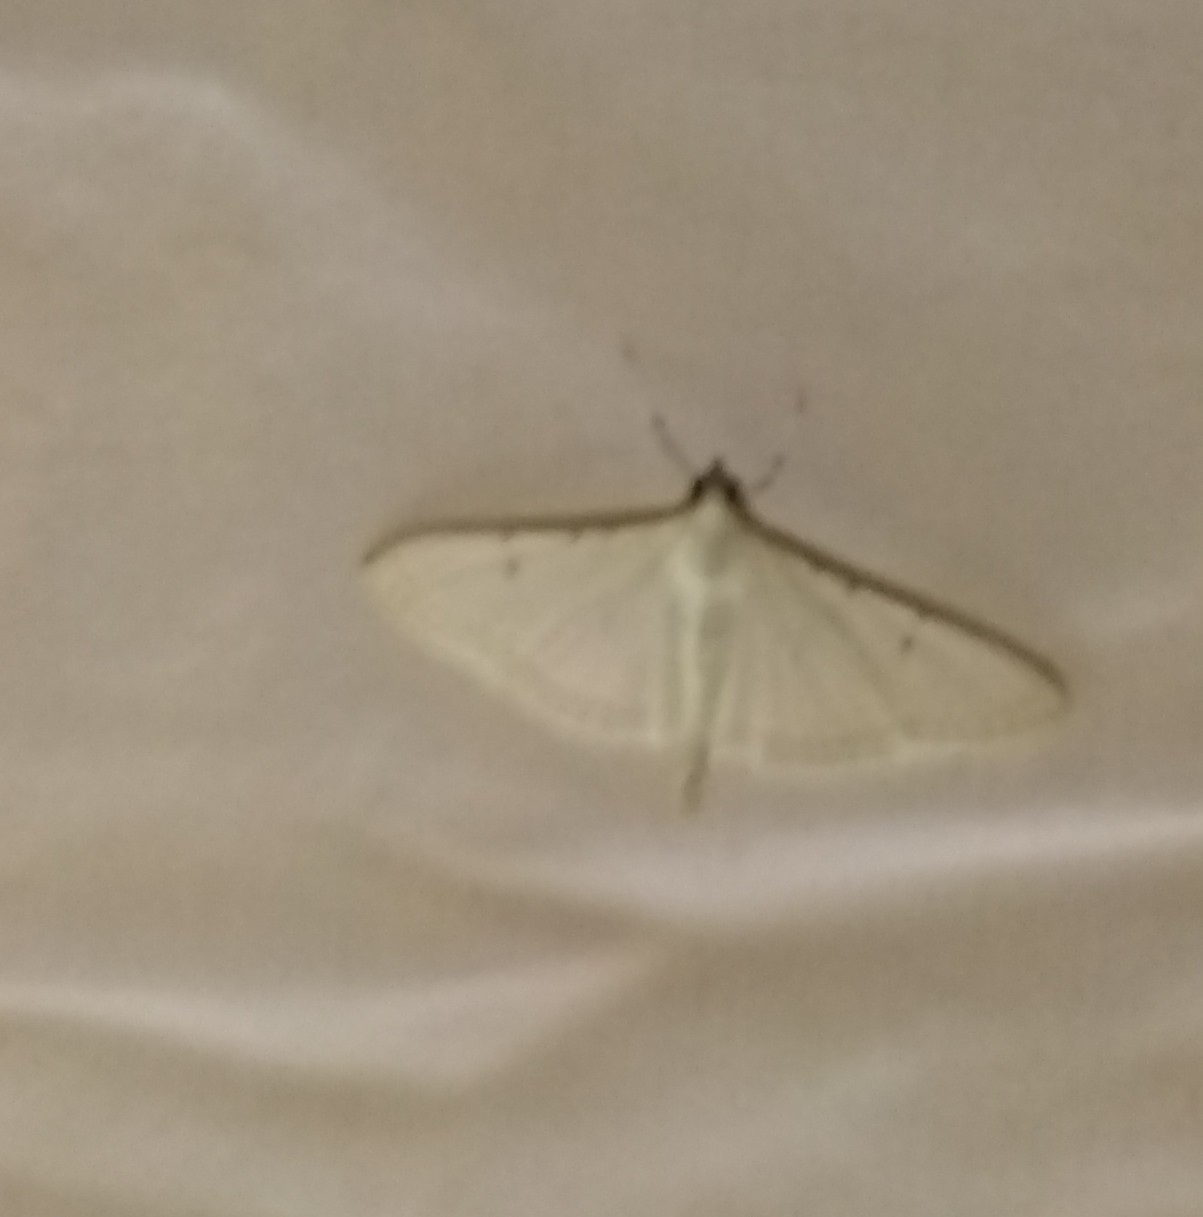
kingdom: Animalia
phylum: Arthropoda
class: Insecta
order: Lepidoptera
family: Crambidae
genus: Palpita
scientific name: Palpita quadristigmalis
